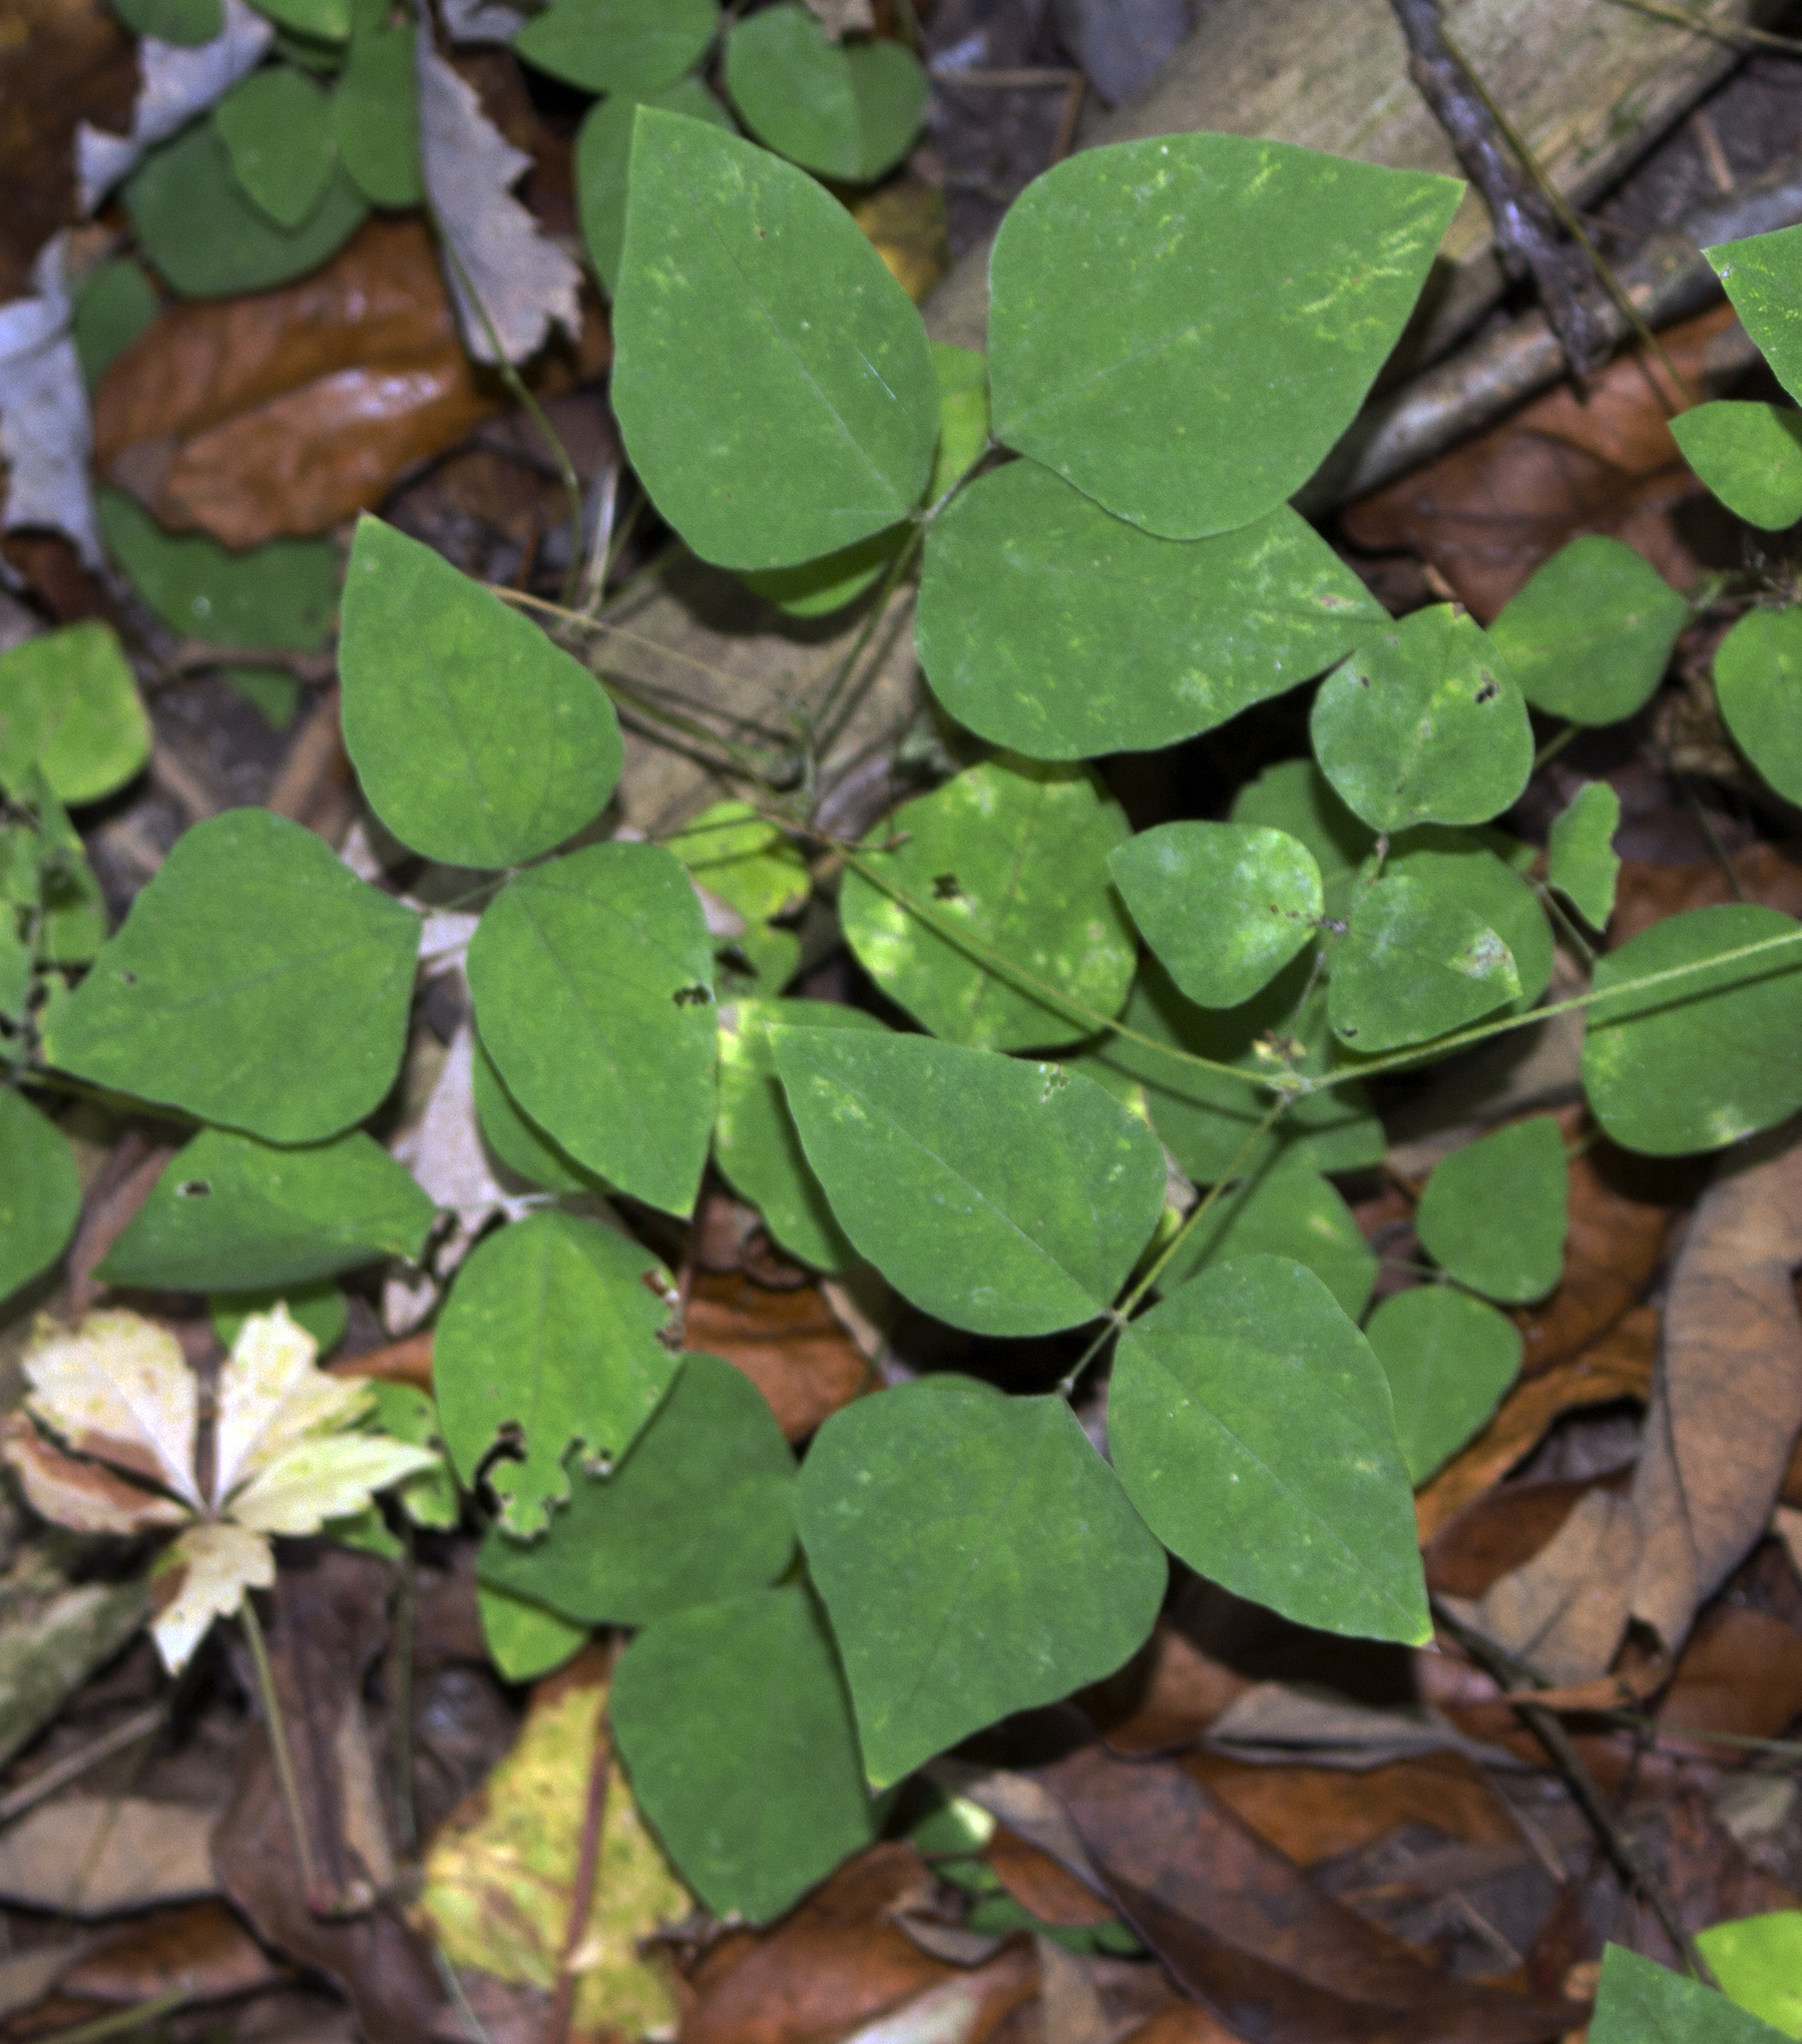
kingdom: Plantae
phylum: Tracheophyta
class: Magnoliopsida
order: Fabales
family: Fabaceae
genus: Amphicarpaea
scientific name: Amphicarpaea bracteata
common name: American hog peanut
